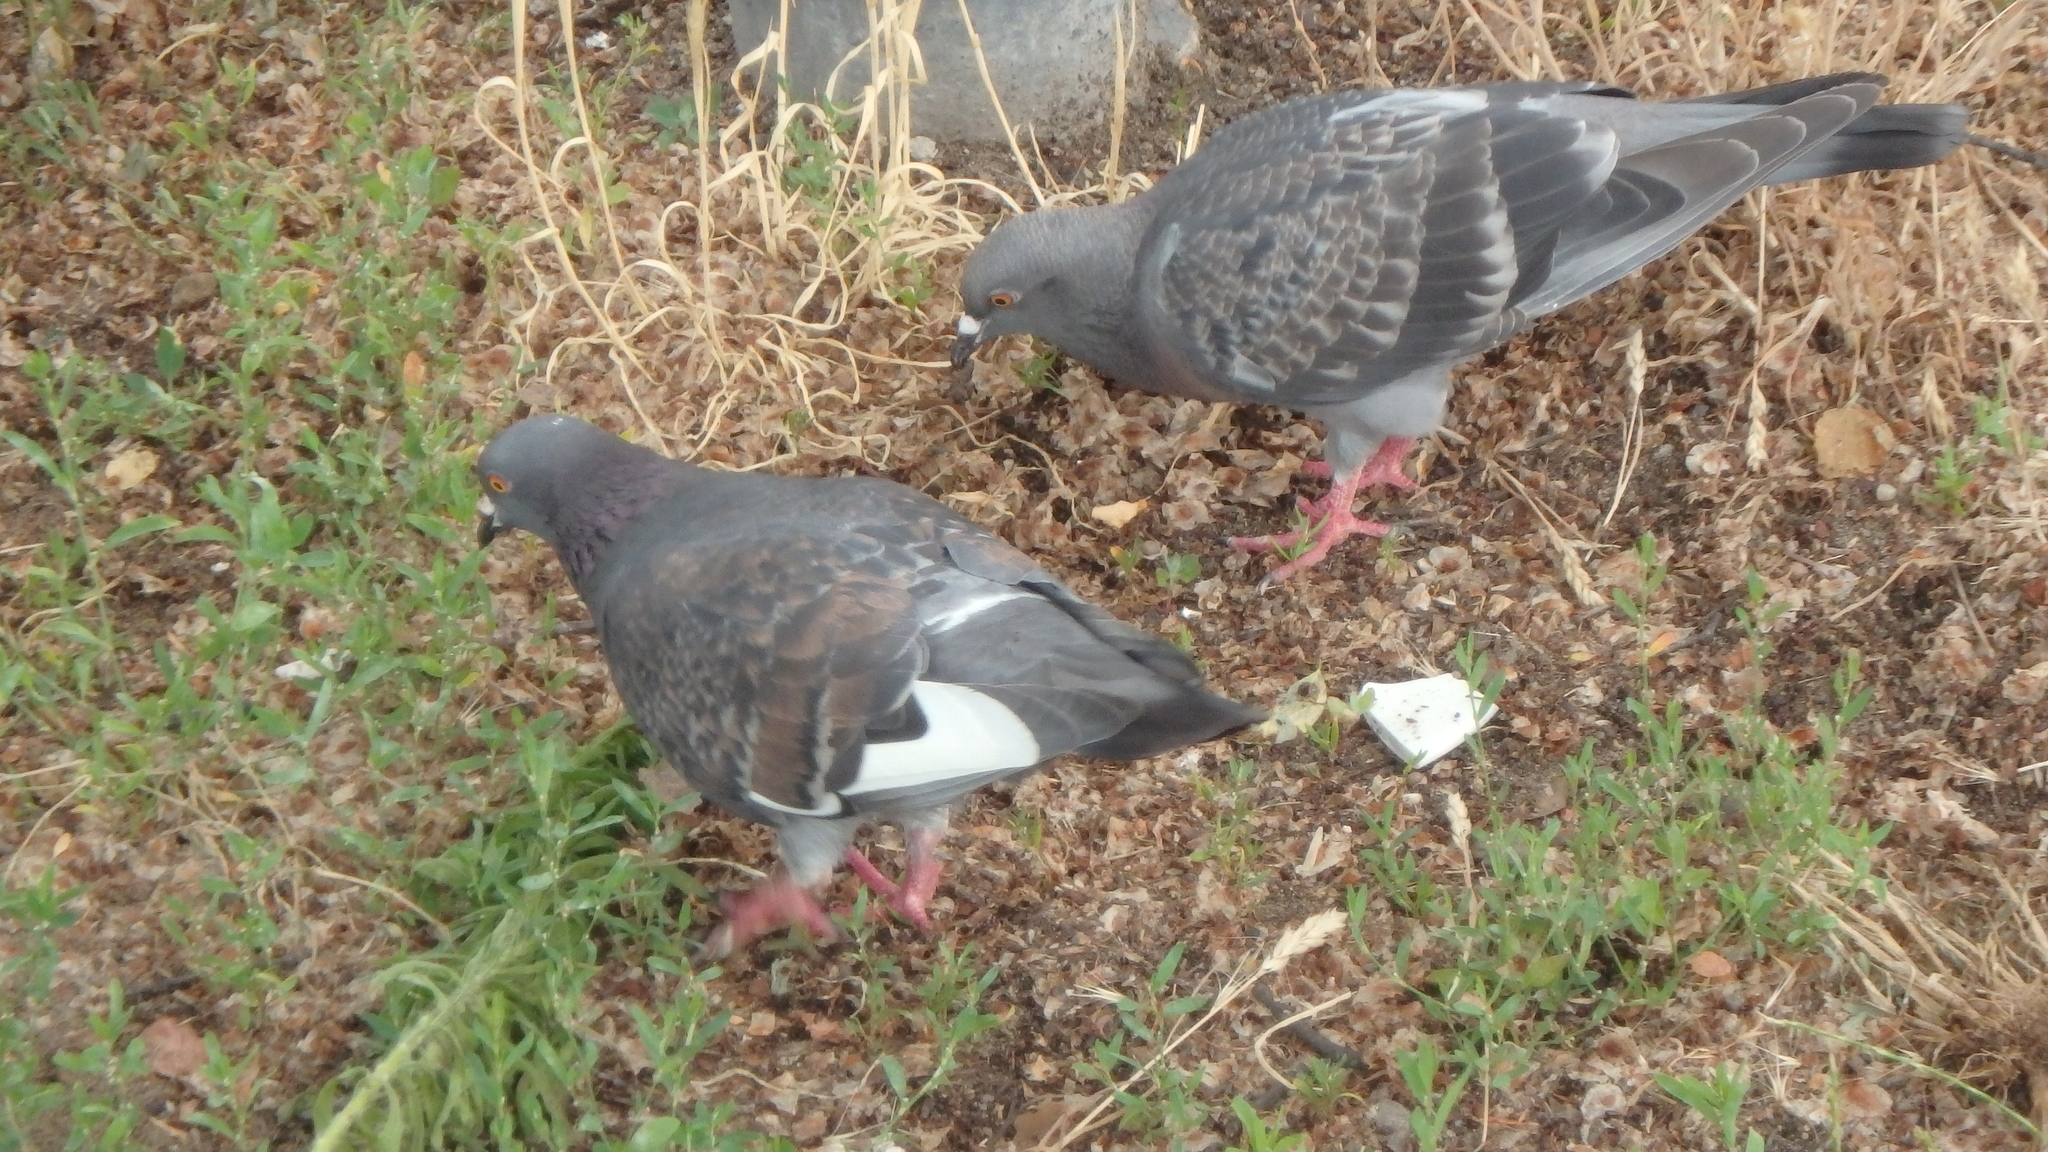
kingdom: Animalia
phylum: Chordata
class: Aves
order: Columbiformes
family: Columbidae
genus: Columba
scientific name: Columba livia
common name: Rock pigeon
